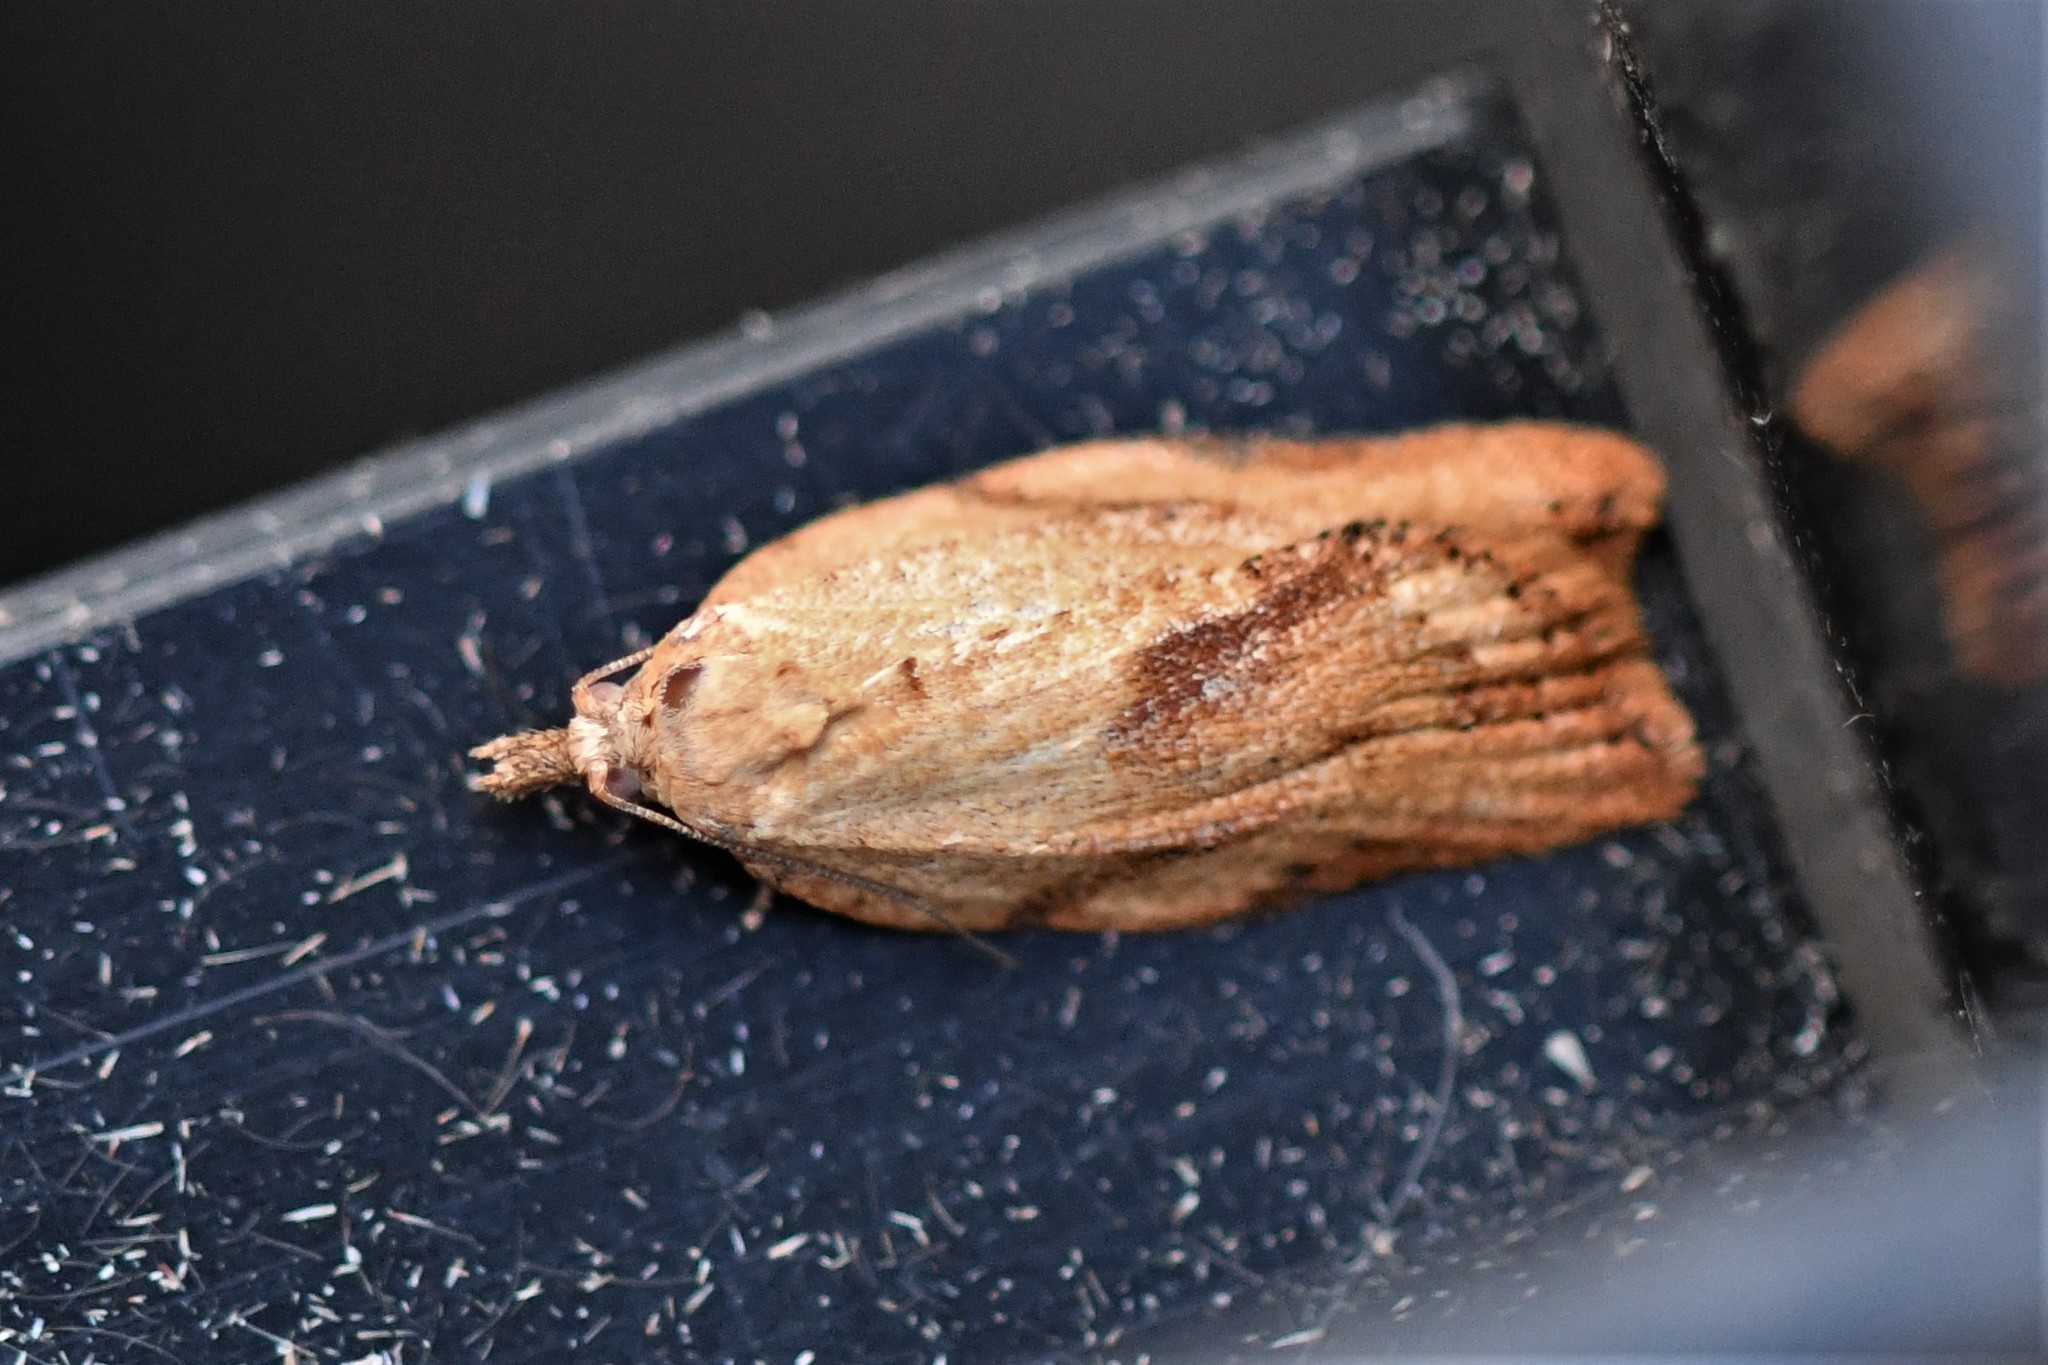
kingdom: Animalia
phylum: Arthropoda
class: Insecta
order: Lepidoptera
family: Tortricidae
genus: Epiphyas
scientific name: Epiphyas postvittana
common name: Light brown apple moth
